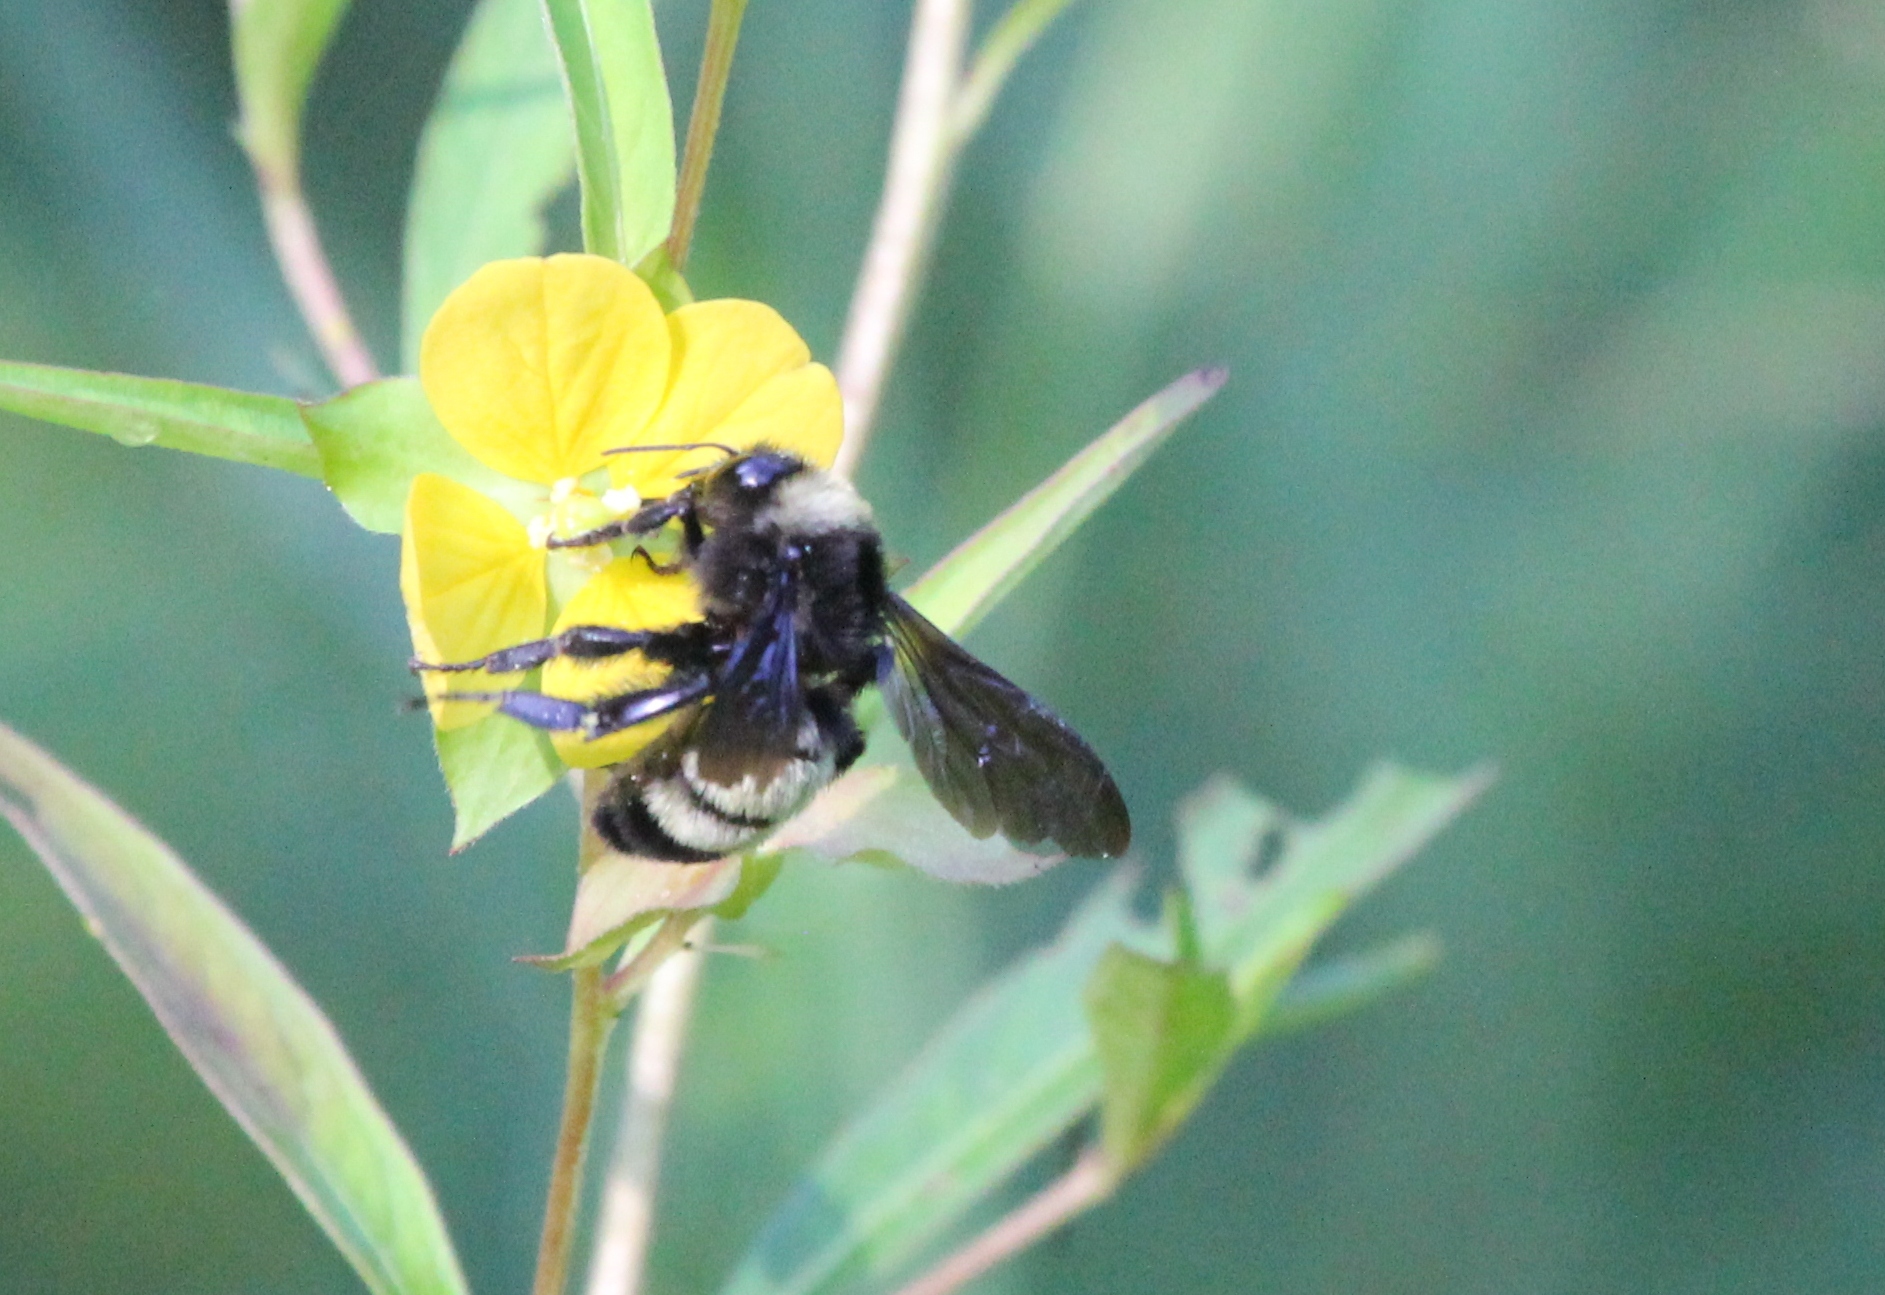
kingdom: Animalia
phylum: Arthropoda
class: Insecta
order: Hymenoptera
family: Apidae
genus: Bombus
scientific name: Bombus pensylvanicus
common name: Bumble bee
